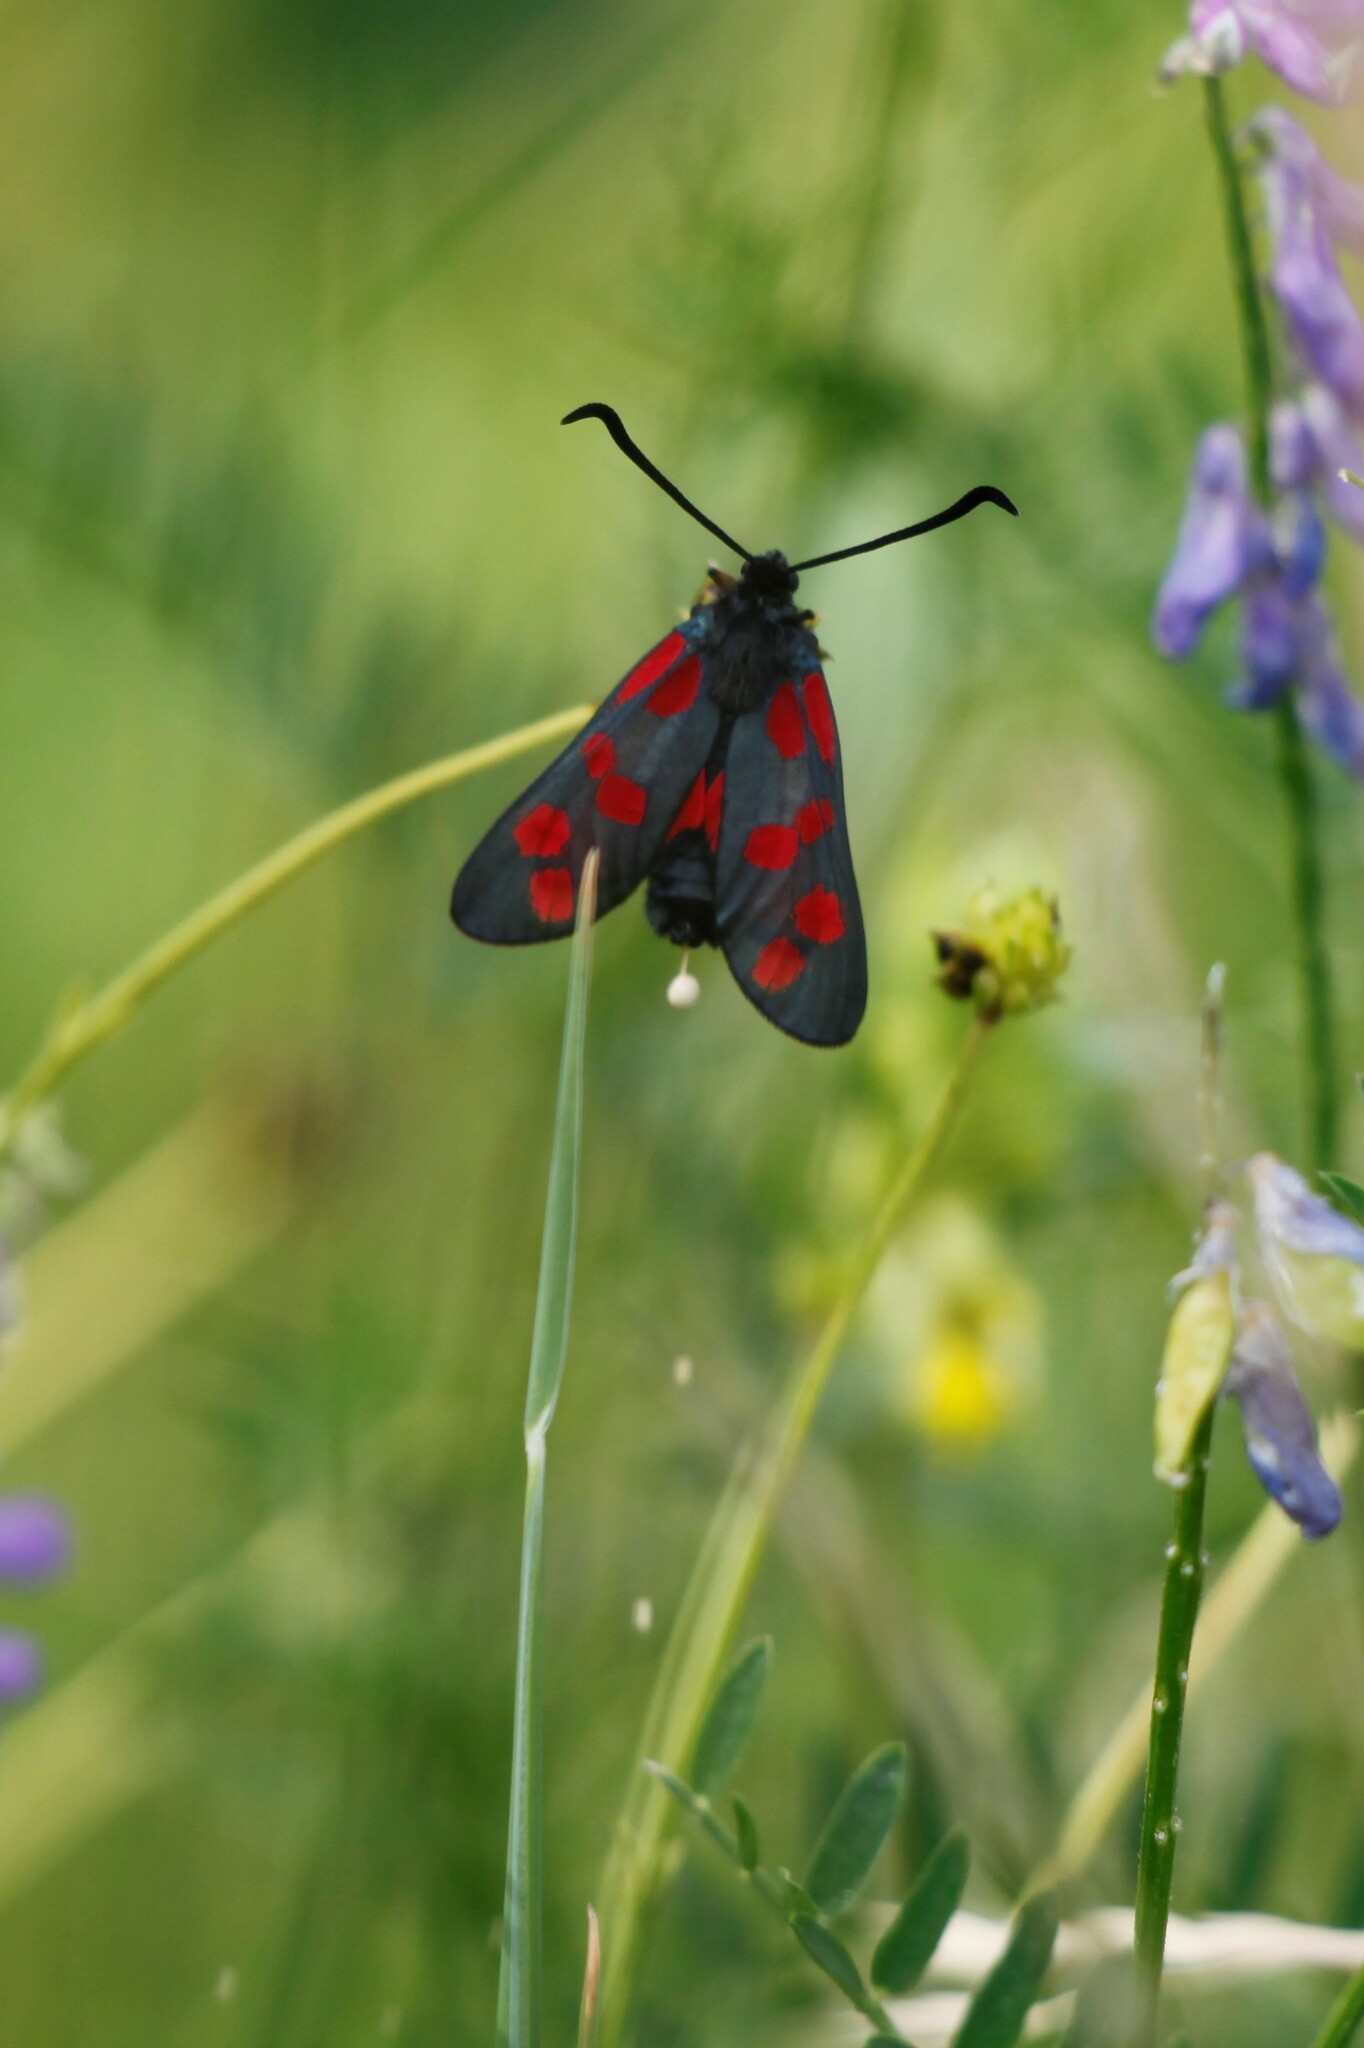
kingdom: Animalia
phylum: Arthropoda
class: Insecta
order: Lepidoptera
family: Zygaenidae
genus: Zygaena
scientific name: Zygaena filipendulae
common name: Six-spot burnet
